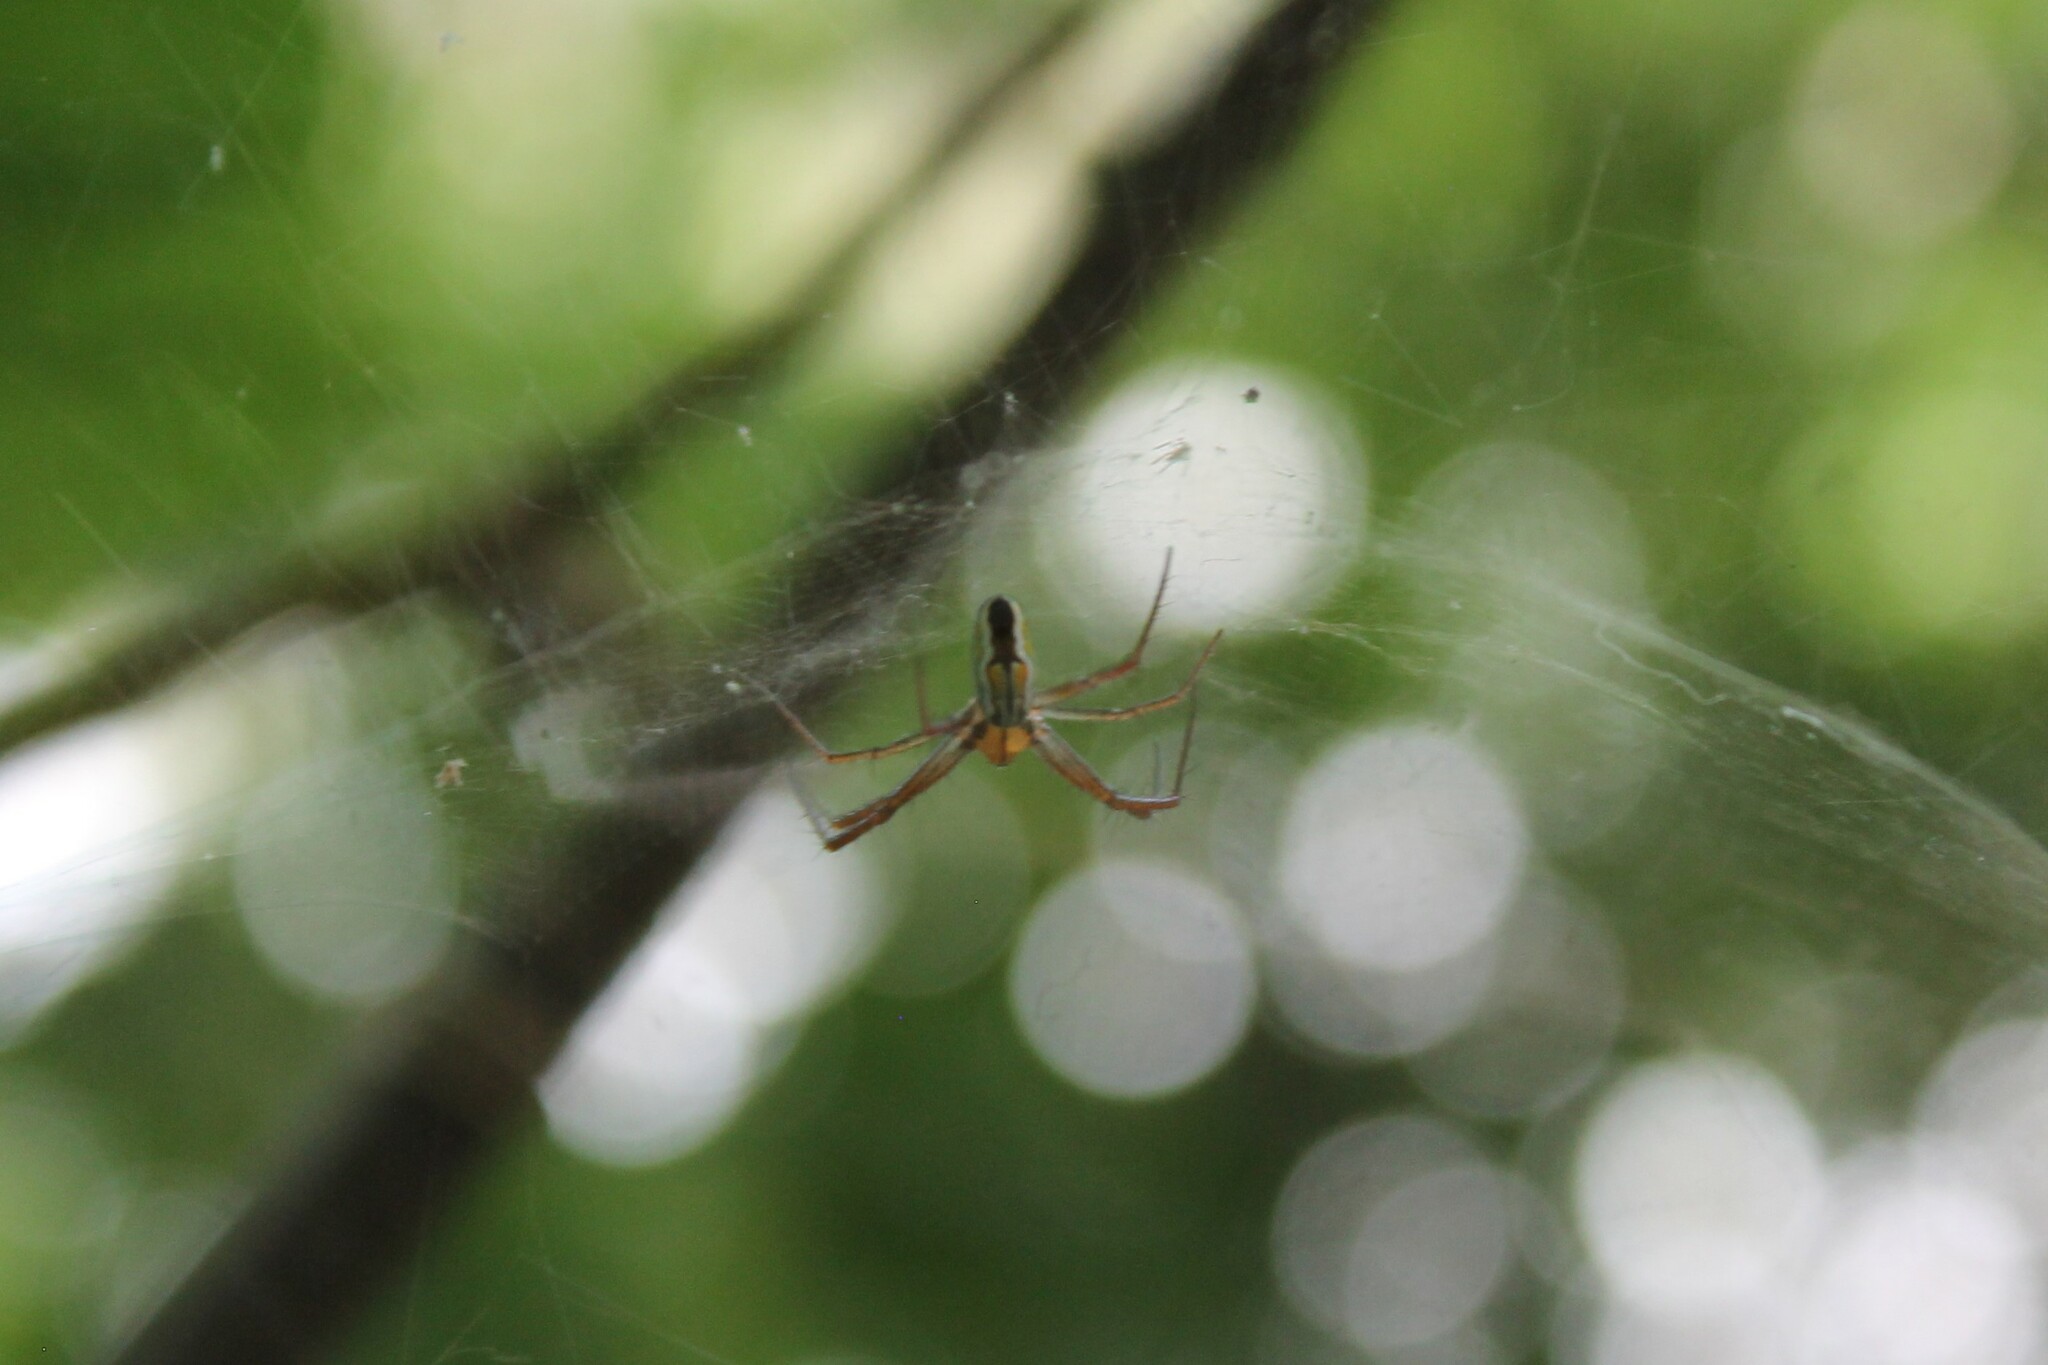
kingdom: Animalia
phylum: Arthropoda
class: Arachnida
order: Araneae
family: Araneidae
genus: Mecynogea
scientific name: Mecynogea lemniscata
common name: Orb weavers
